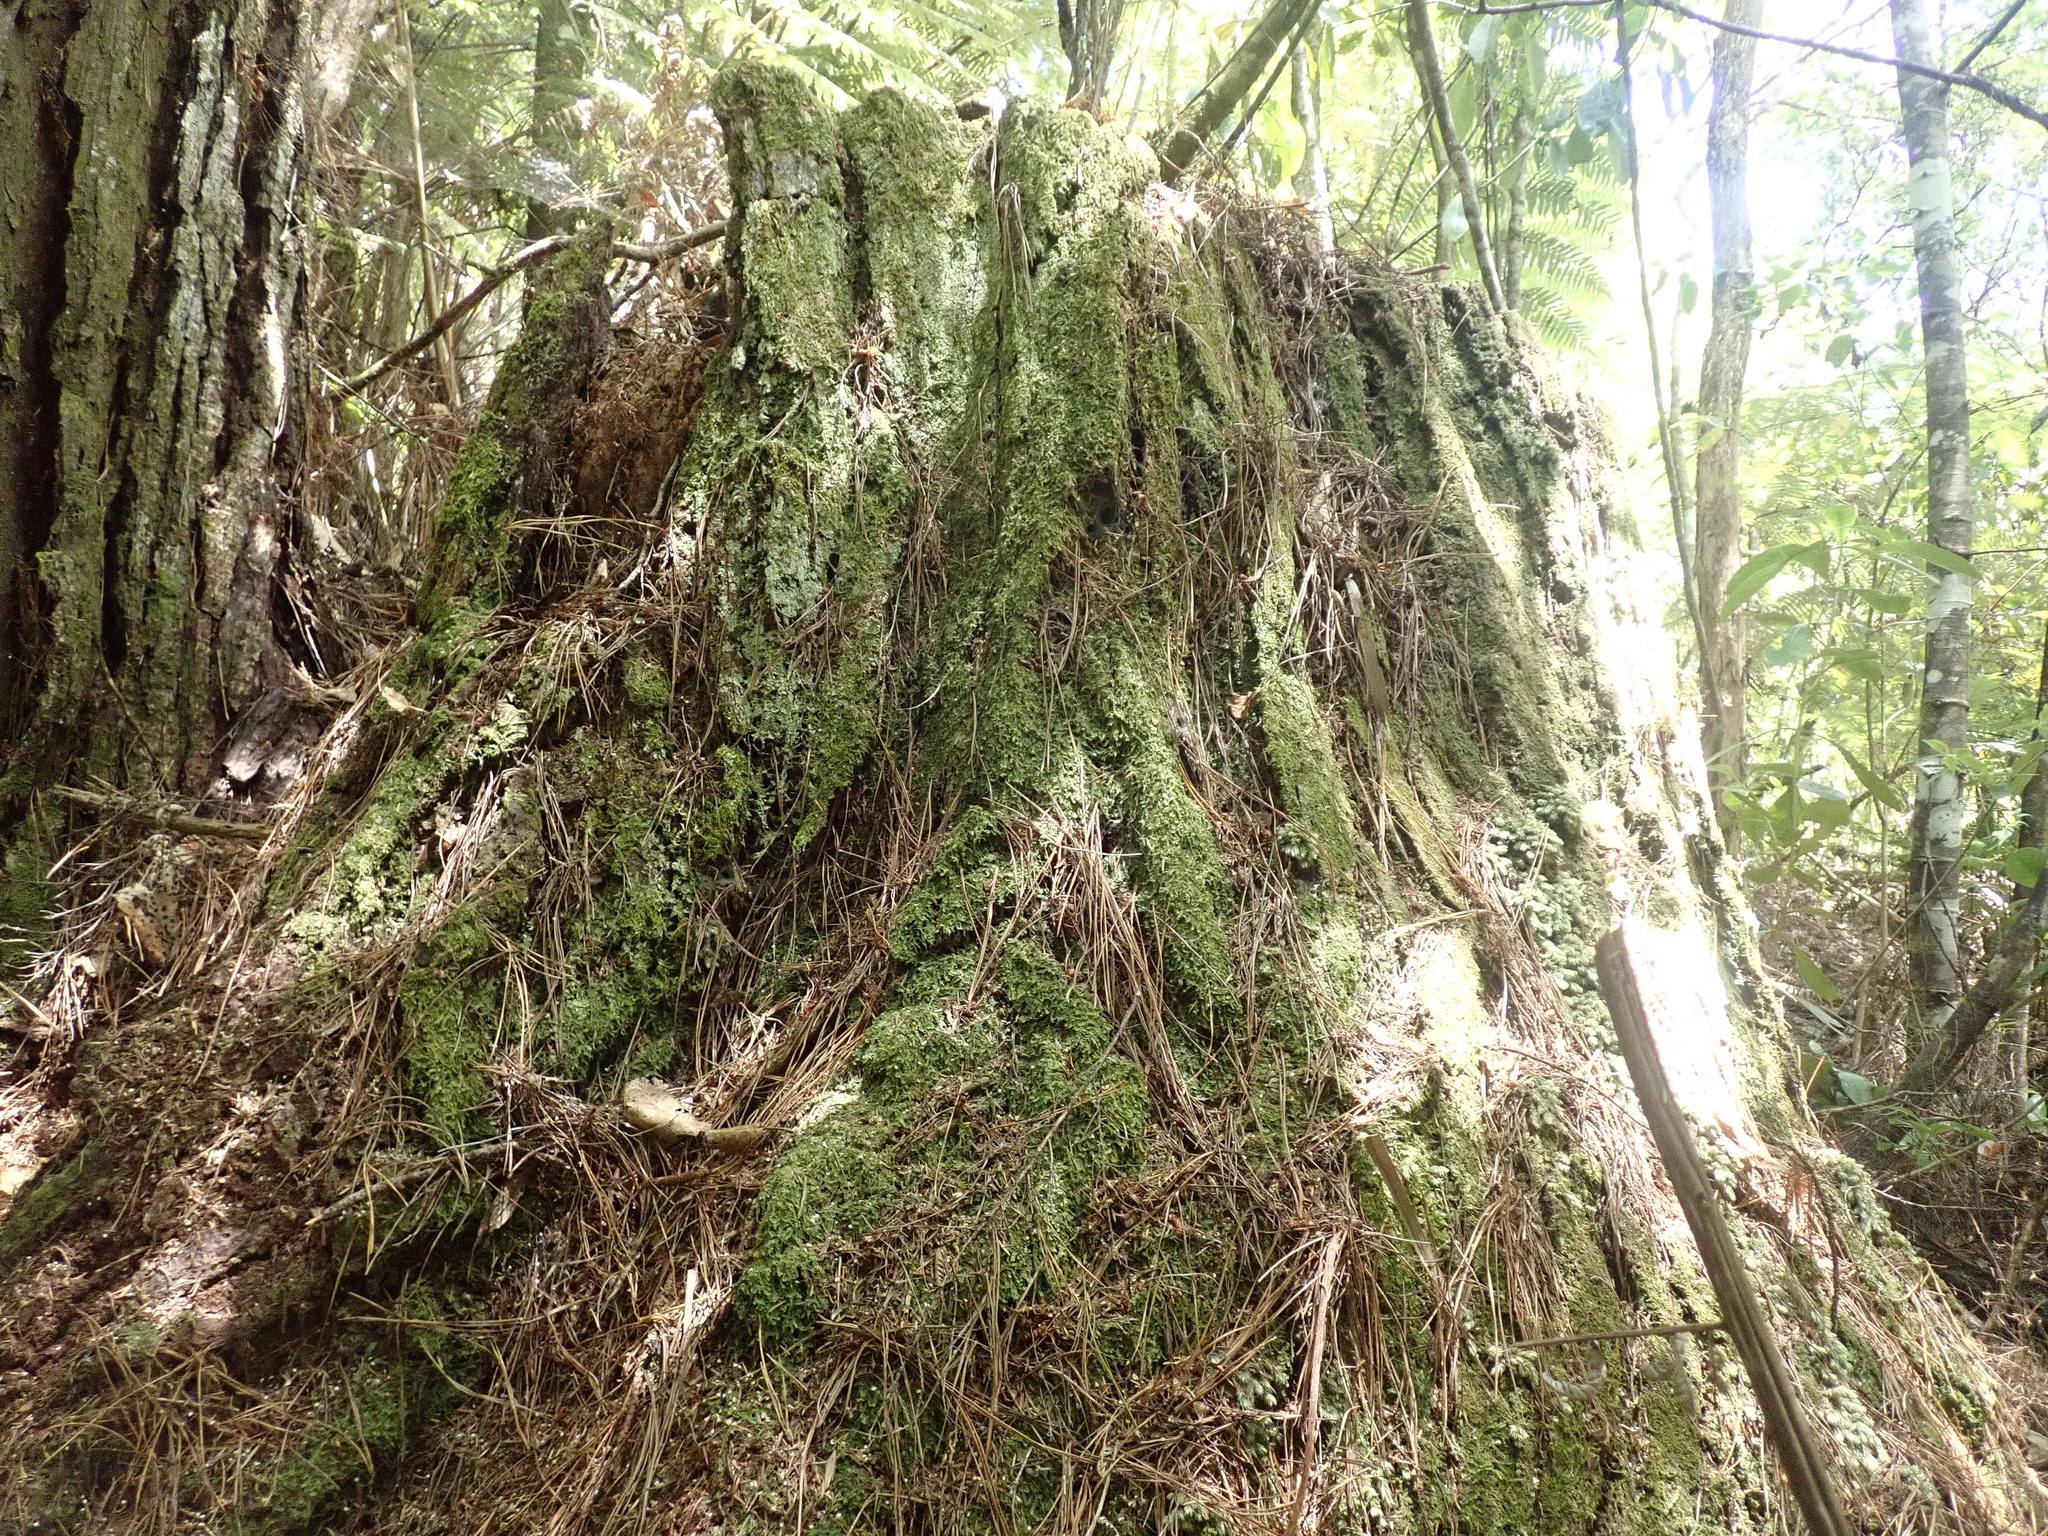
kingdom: Plantae
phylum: Tracheophyta
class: Pinopsida
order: Pinales
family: Pinaceae
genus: Pinus
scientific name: Pinus radiata
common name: Monterey pine
